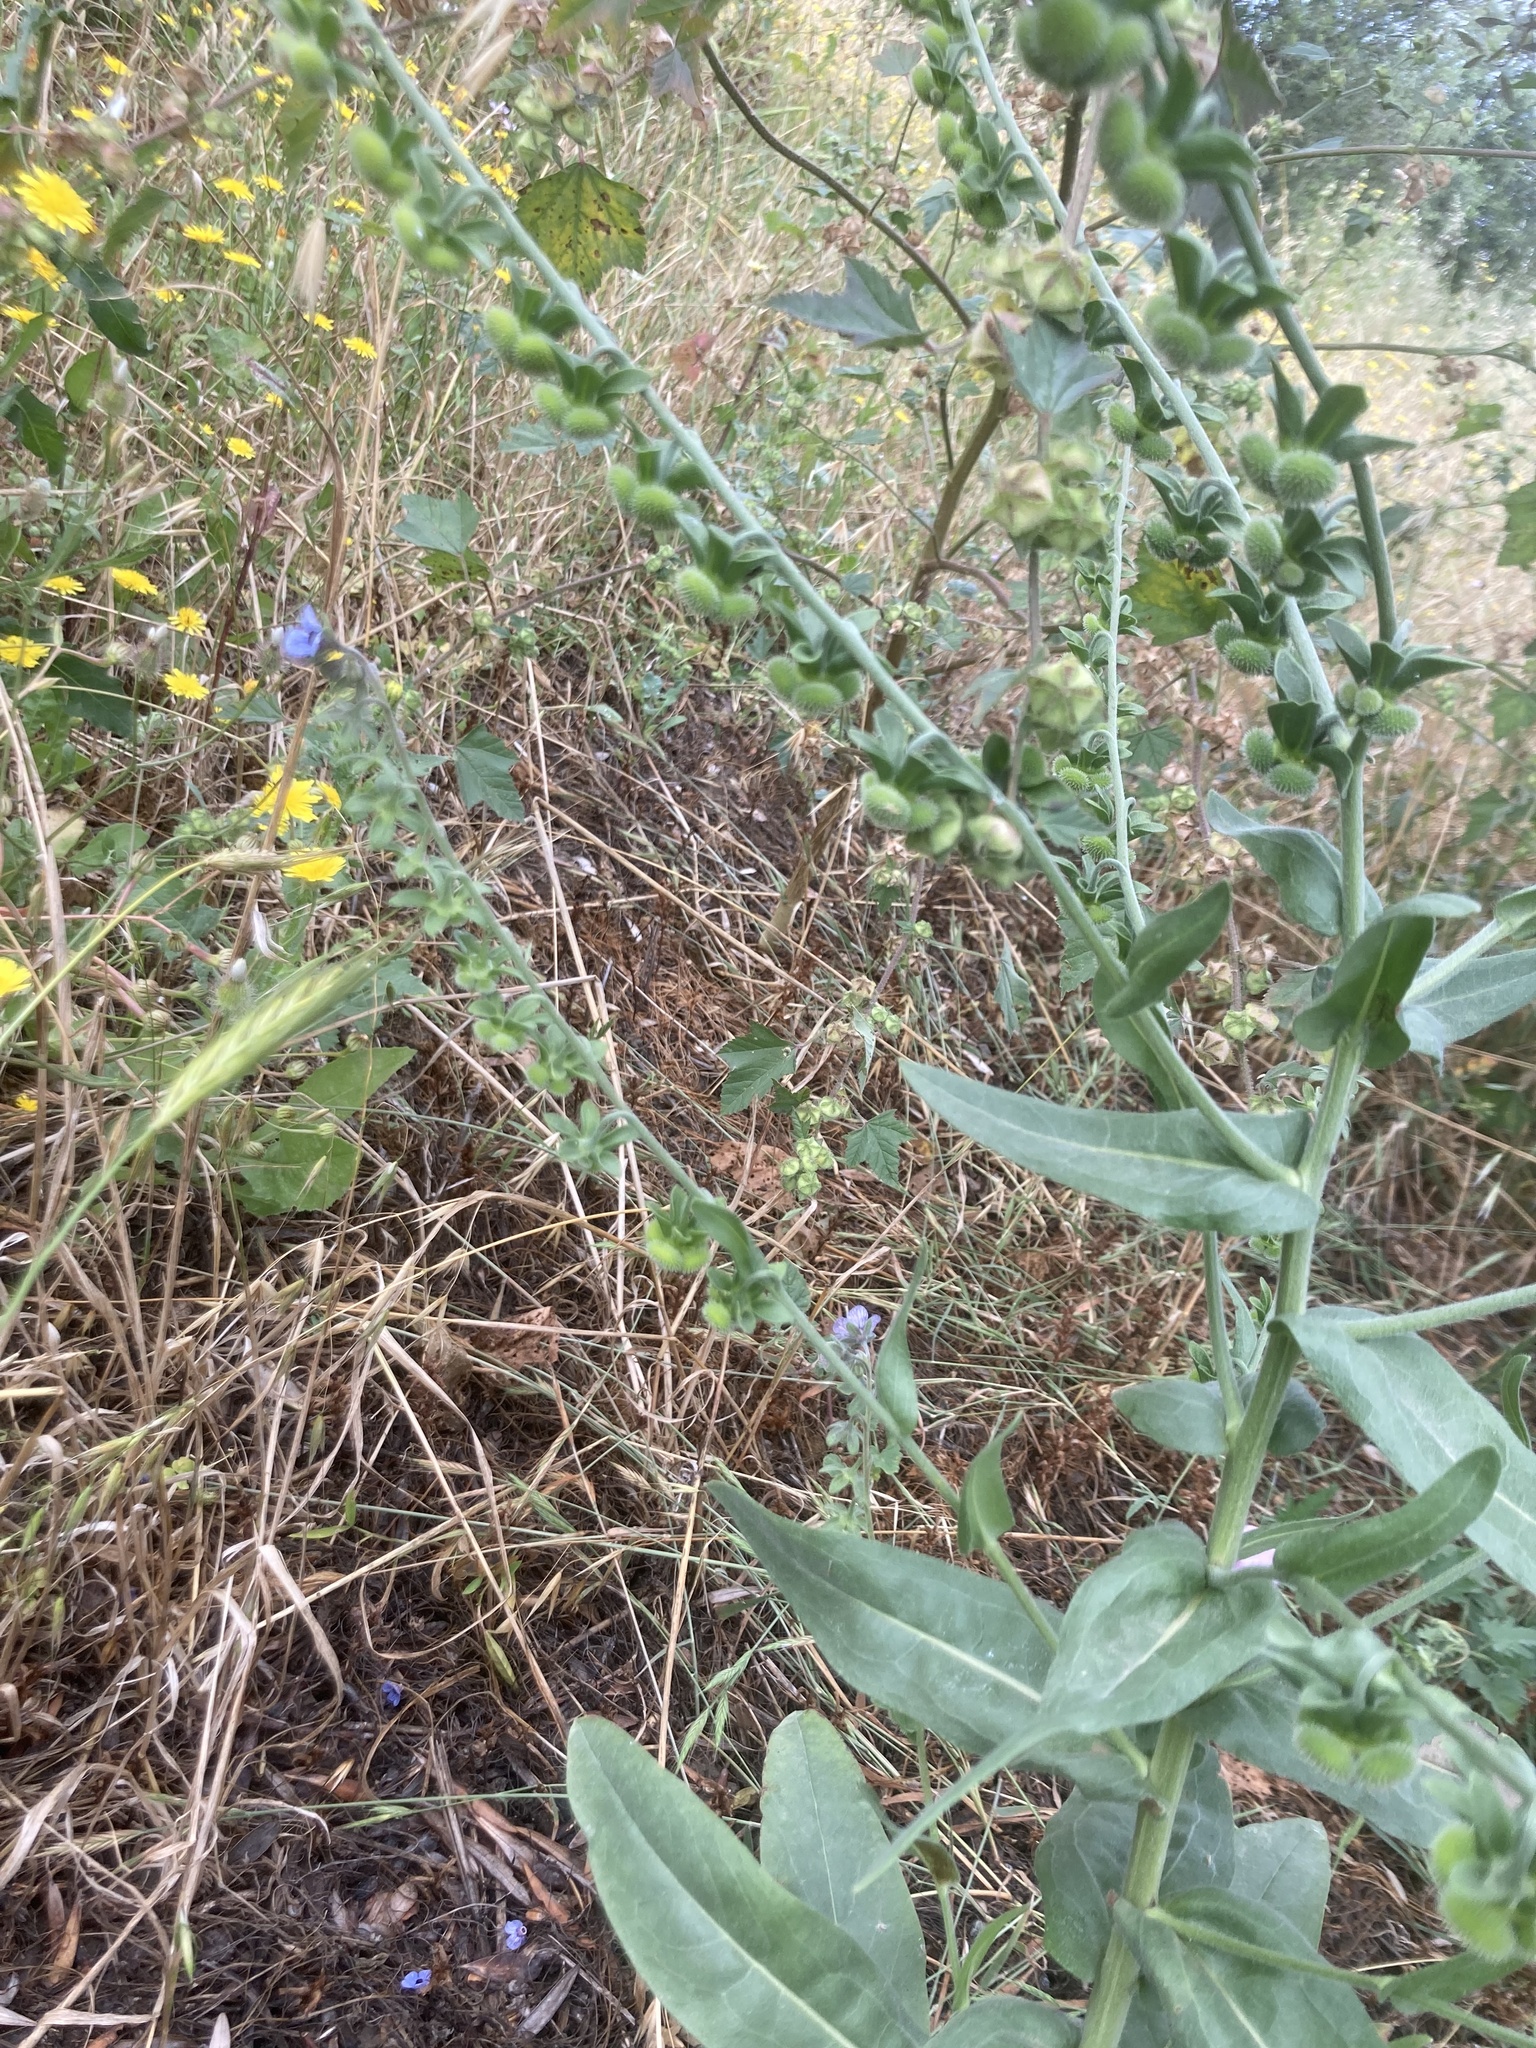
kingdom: Plantae
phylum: Tracheophyta
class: Magnoliopsida
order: Boraginales
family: Boraginaceae
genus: Cynoglossum
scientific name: Cynoglossum creticum
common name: Blue hound's tongue
